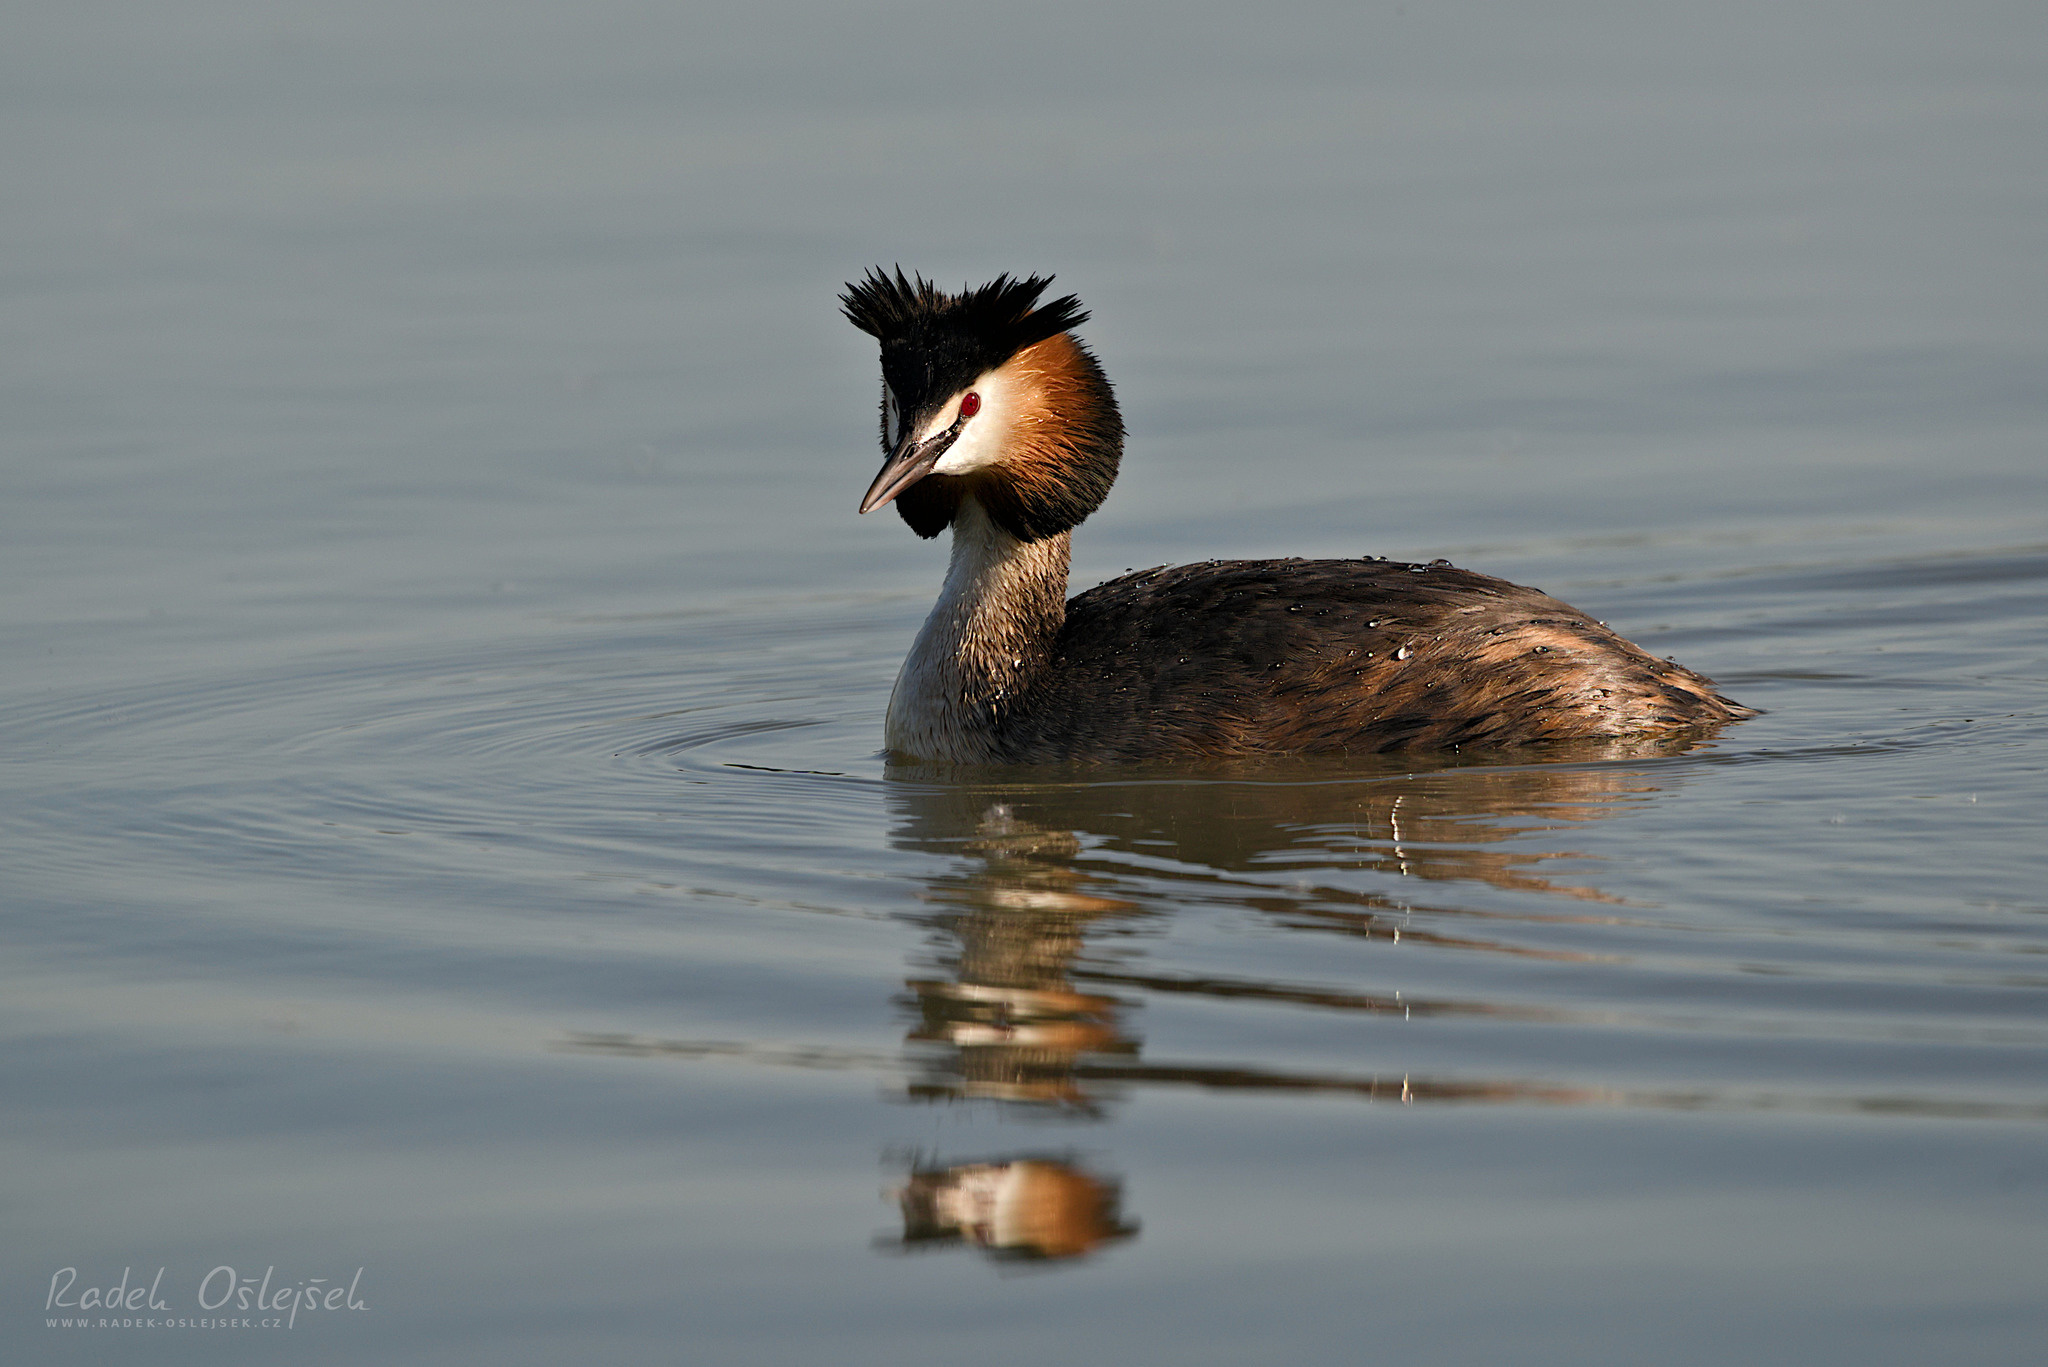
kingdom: Animalia
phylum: Chordata
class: Aves
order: Podicipediformes
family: Podicipedidae
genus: Podiceps
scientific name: Podiceps cristatus
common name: Great crested grebe
